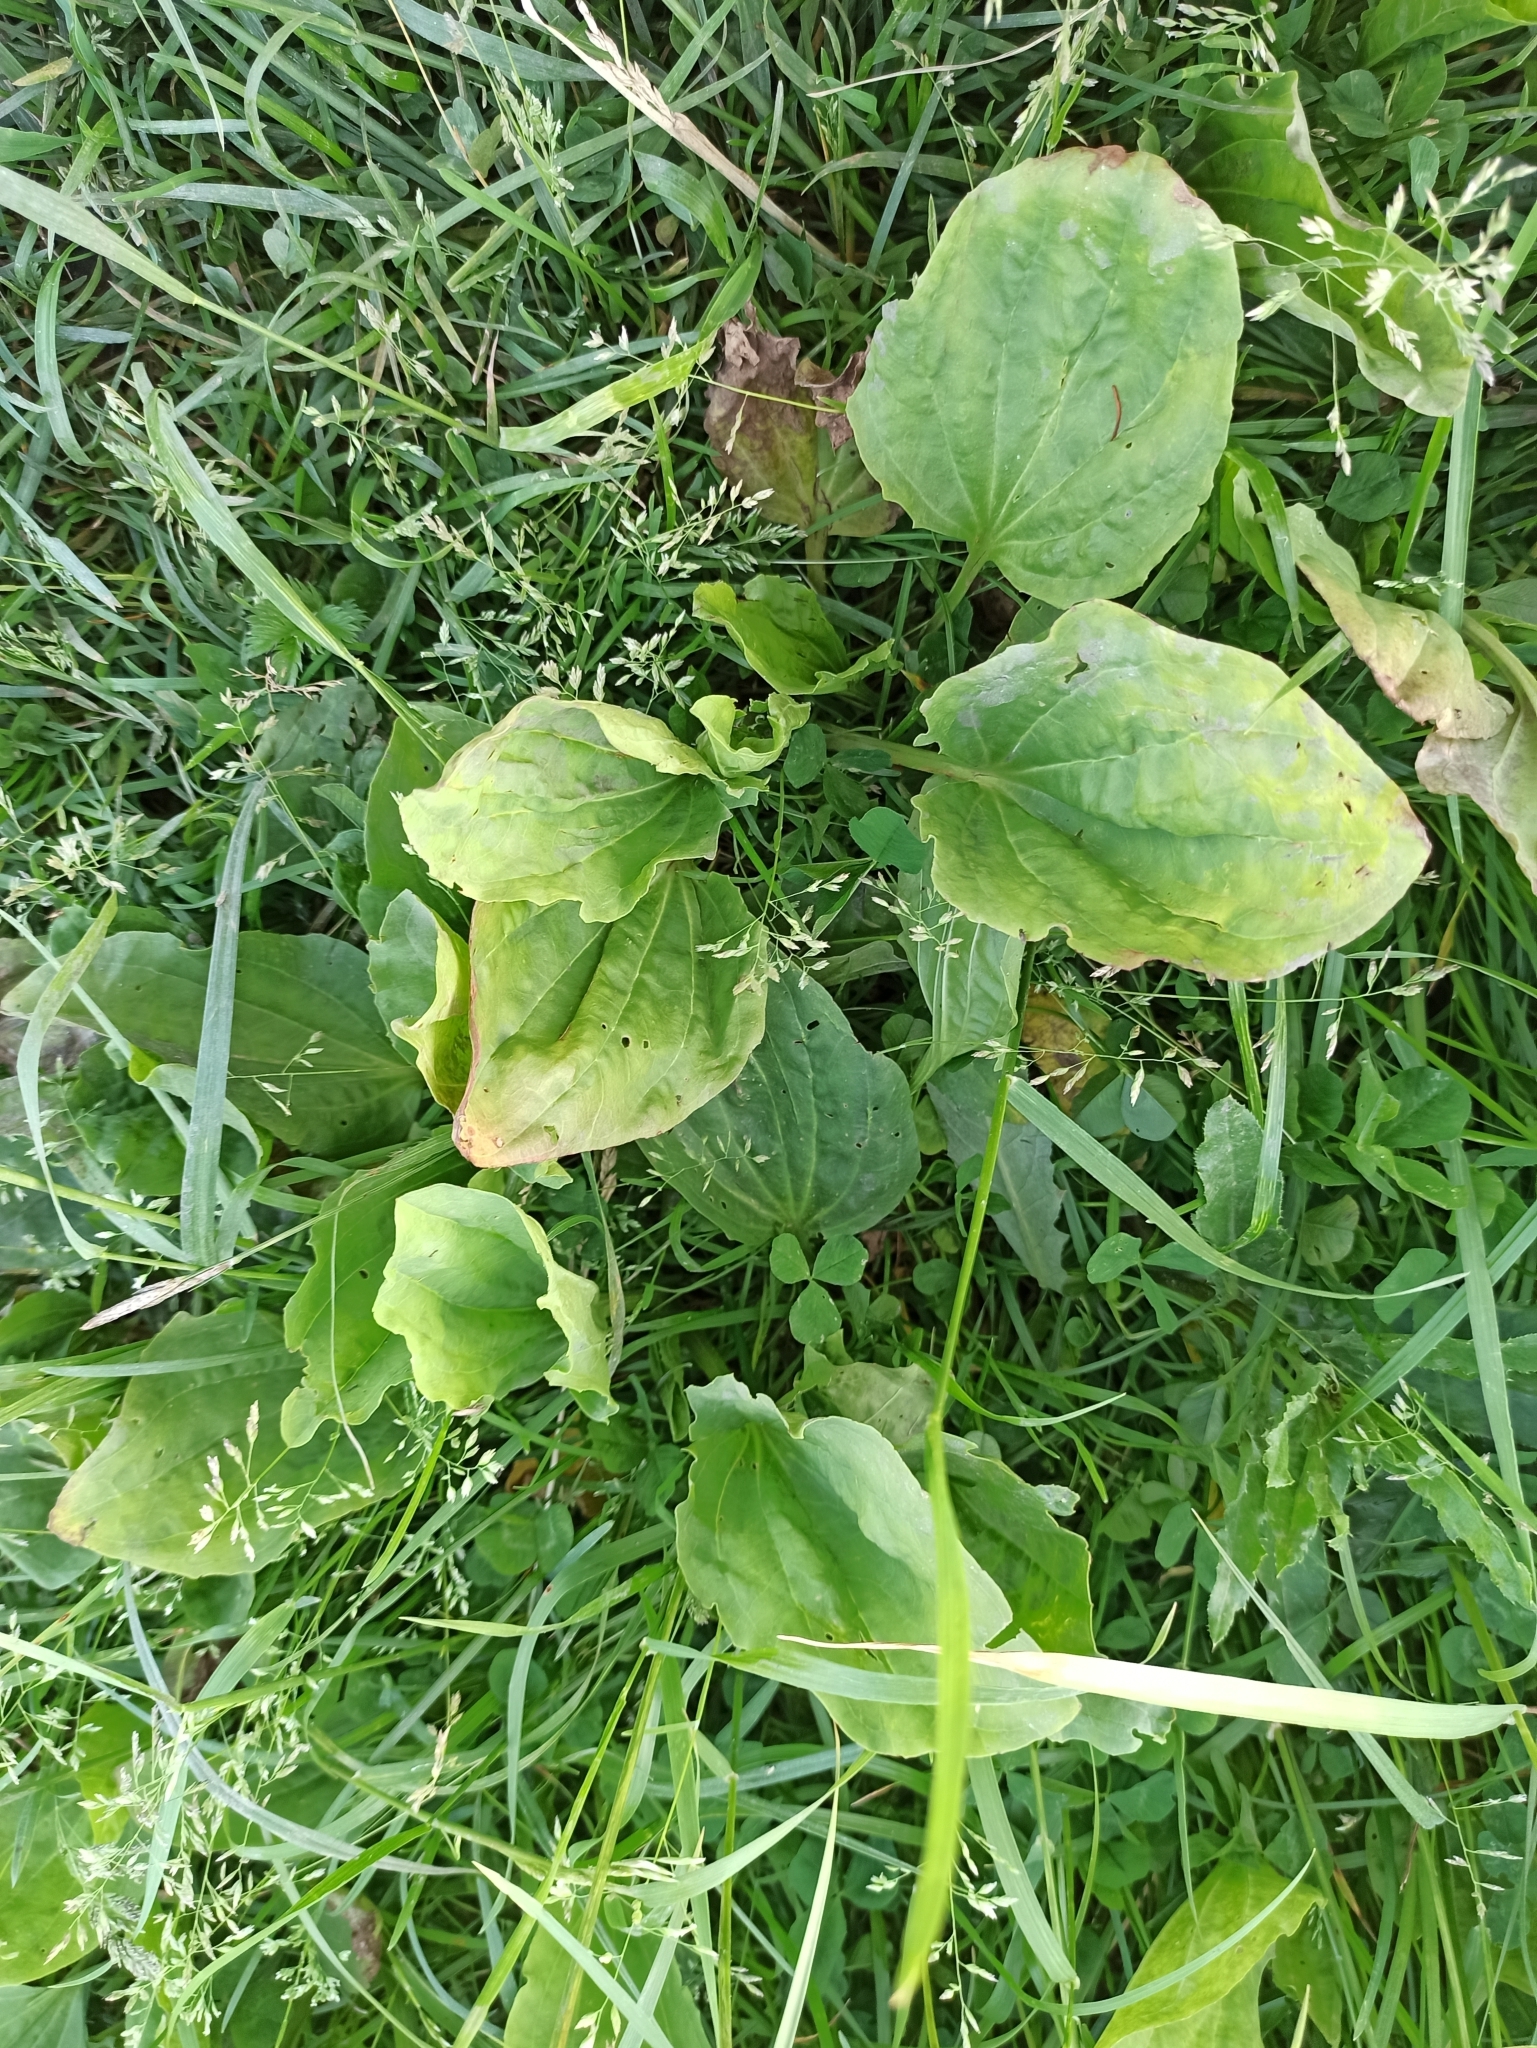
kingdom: Plantae
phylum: Tracheophyta
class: Magnoliopsida
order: Lamiales
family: Plantaginaceae
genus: Plantago
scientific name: Plantago major
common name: Common plantain
